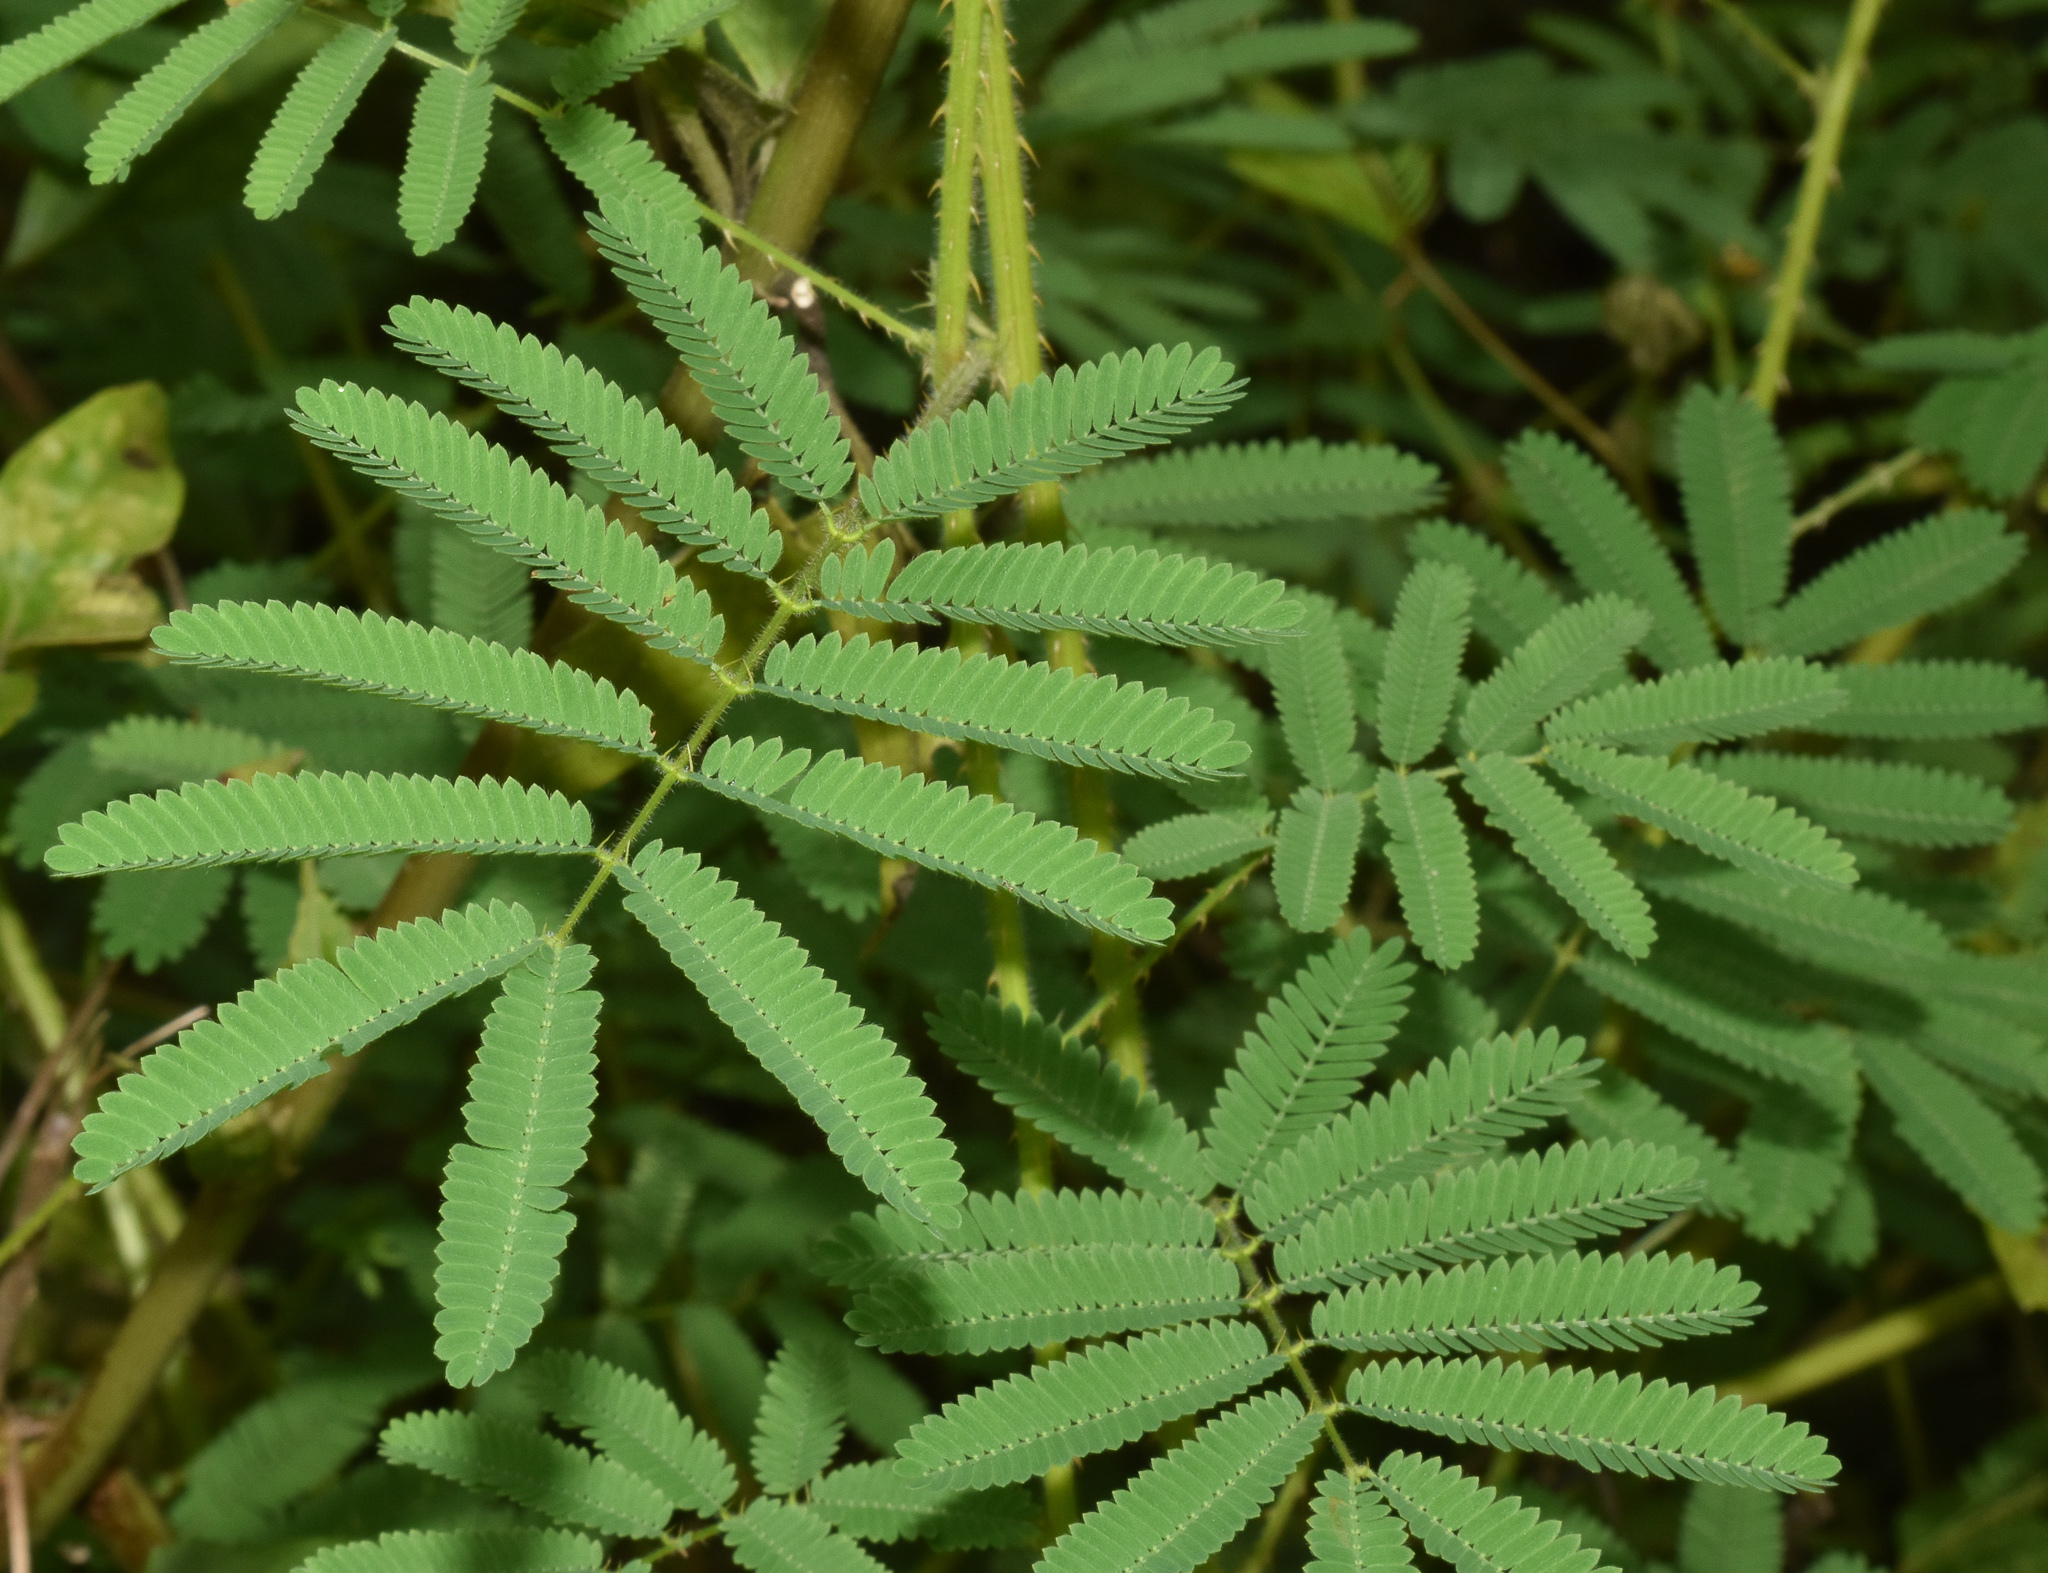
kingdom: Plantae
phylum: Tracheophyta
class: Magnoliopsida
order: Fabales
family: Fabaceae
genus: Mimosa
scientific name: Mimosa diplotricha
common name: Giant sensitive-plant
